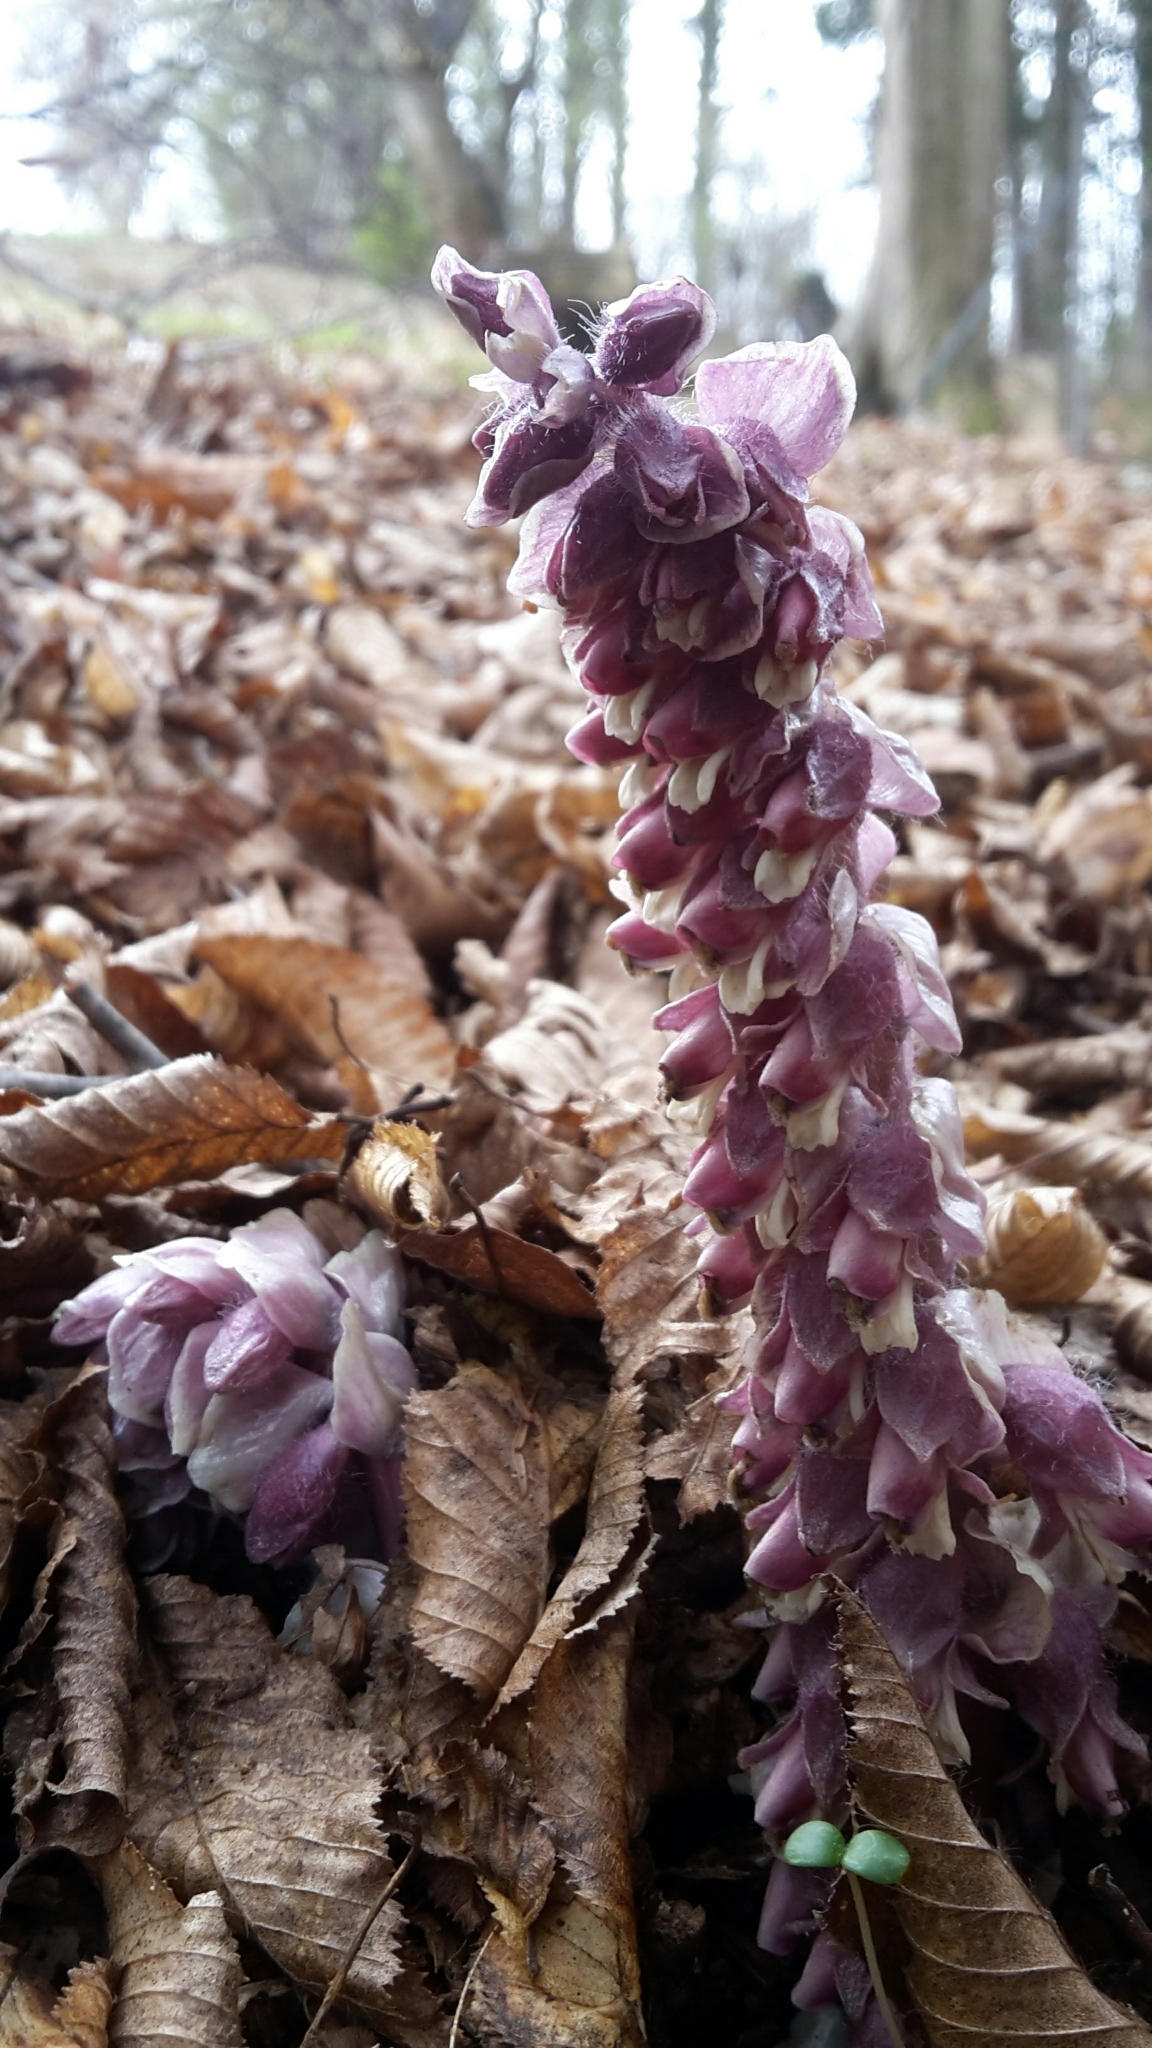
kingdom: Plantae
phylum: Tracheophyta
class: Magnoliopsida
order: Lamiales
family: Orobanchaceae
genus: Lathraea
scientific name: Lathraea squamaria
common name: Toothwort
